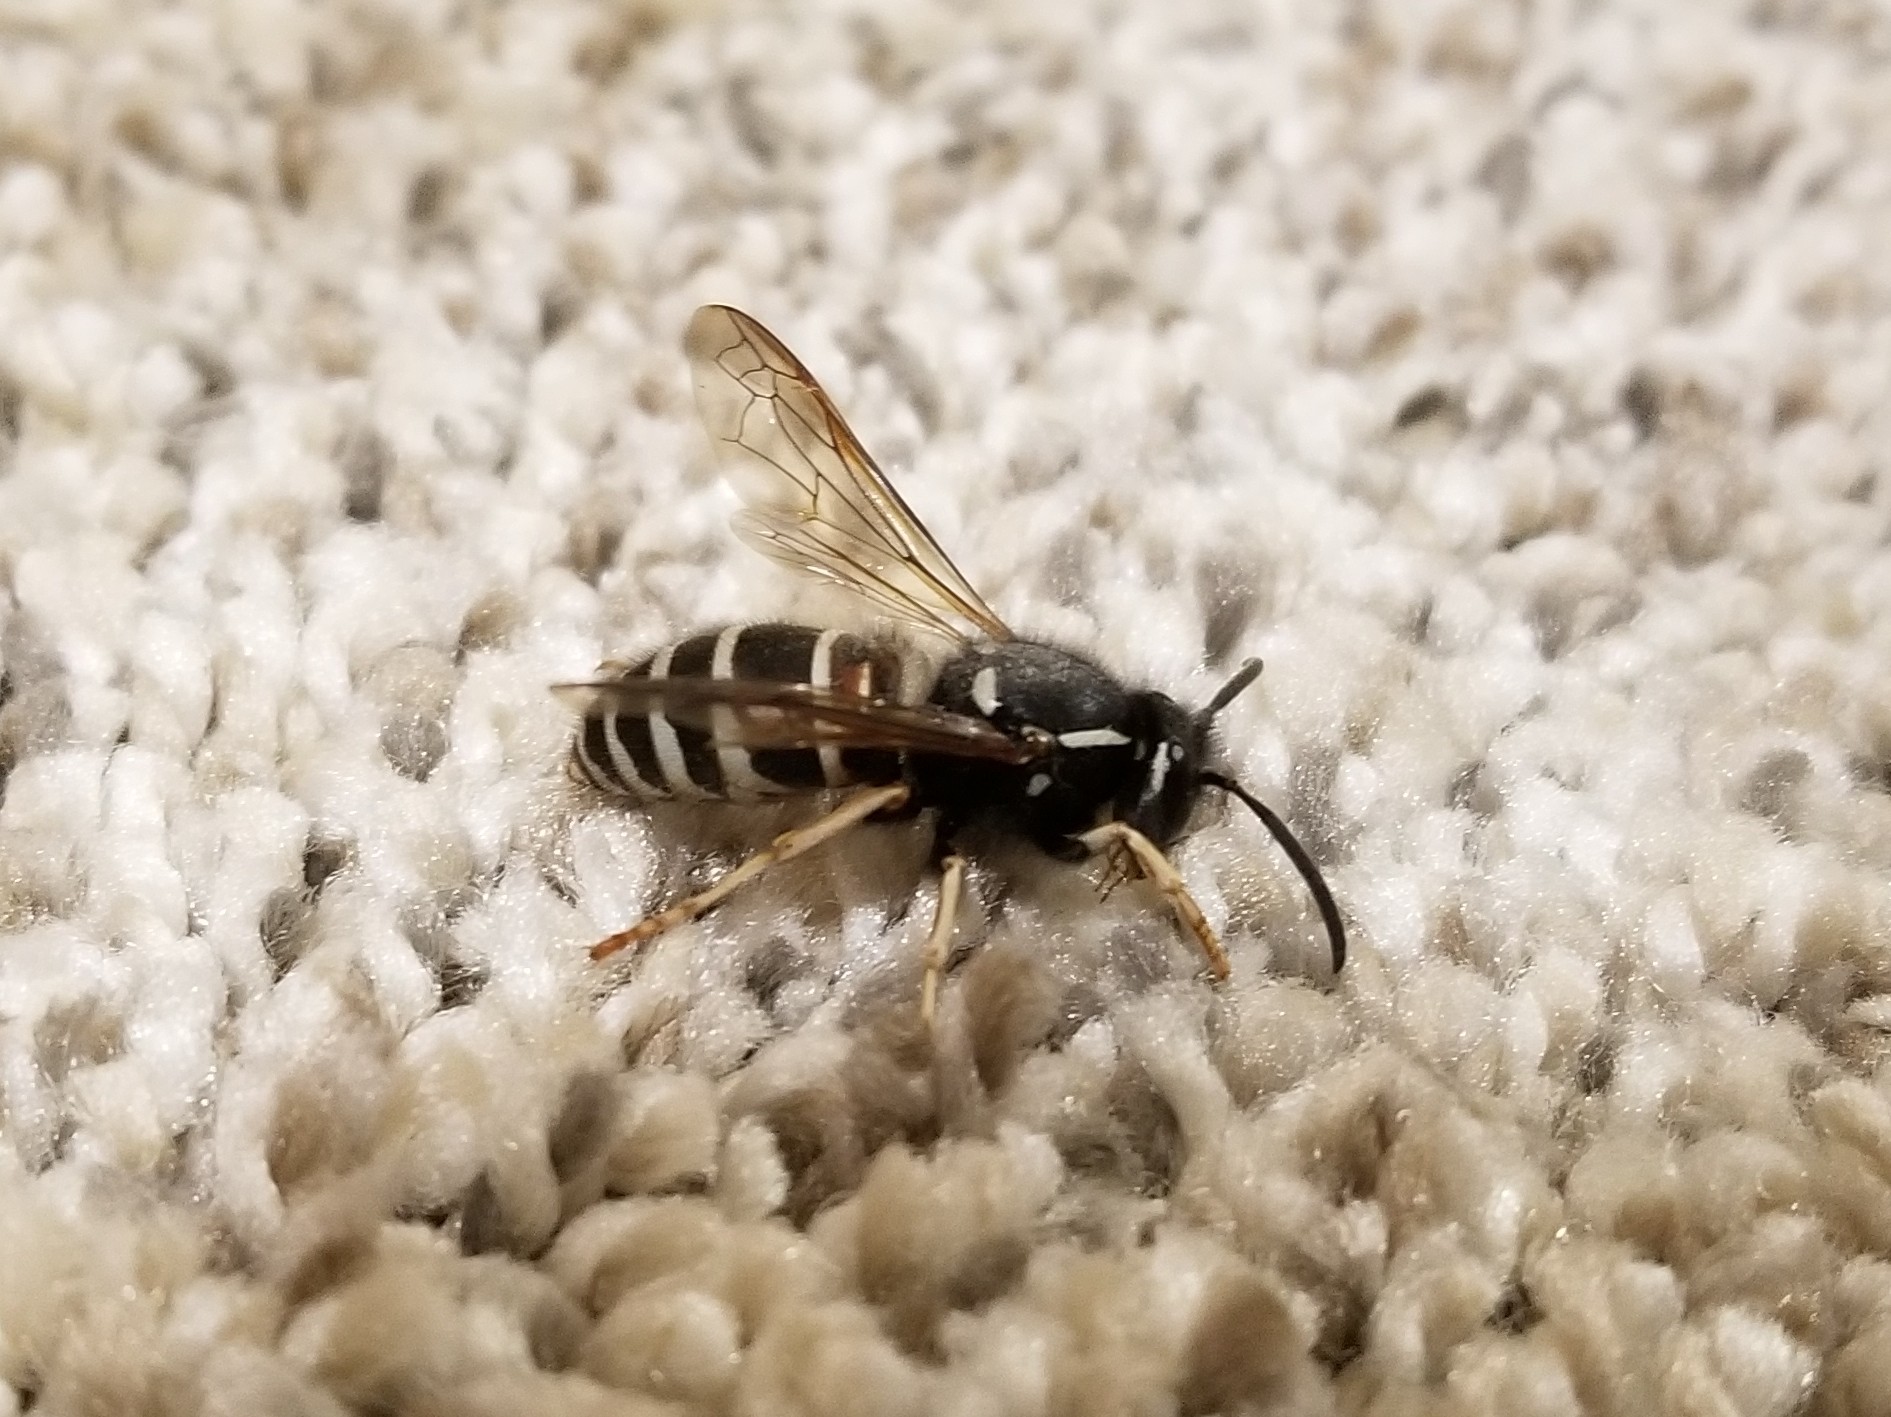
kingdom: Animalia
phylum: Arthropoda
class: Insecta
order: Hymenoptera
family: Vespidae
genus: Vespula
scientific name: Vespula intermedia
